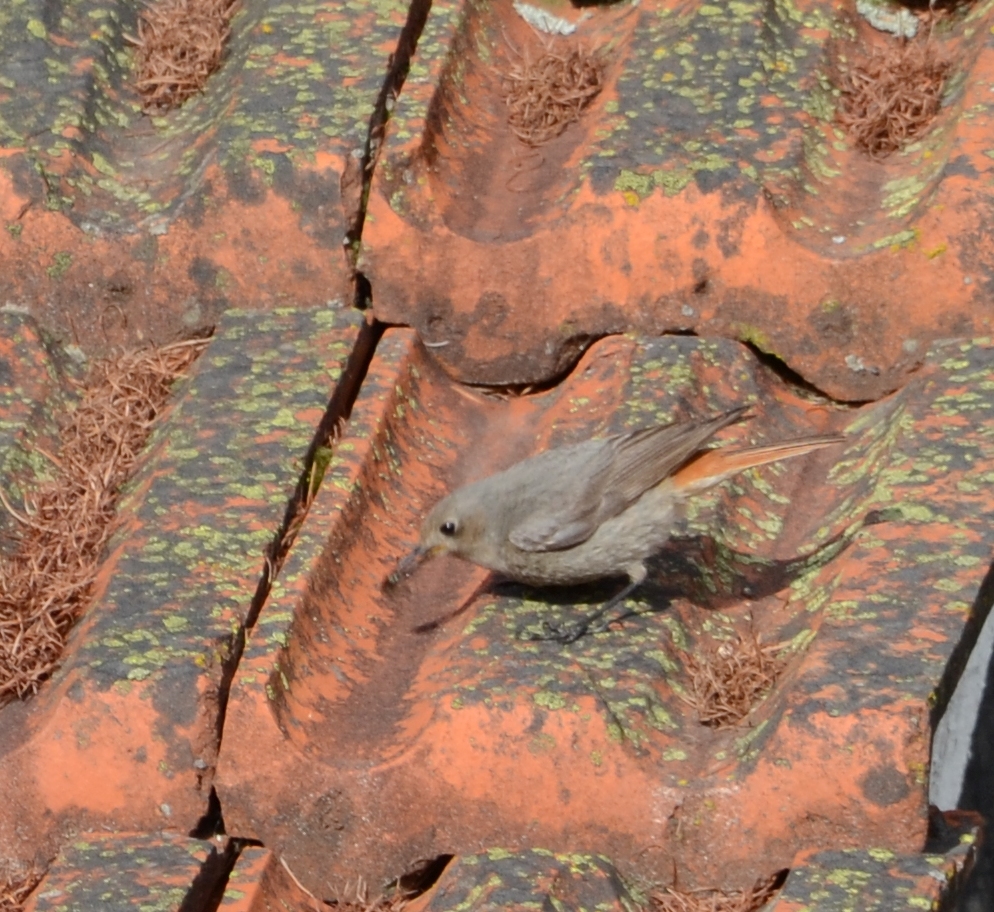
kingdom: Animalia
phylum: Chordata
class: Aves
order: Passeriformes
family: Muscicapidae
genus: Phoenicurus
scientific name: Phoenicurus ochruros
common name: Black redstart
